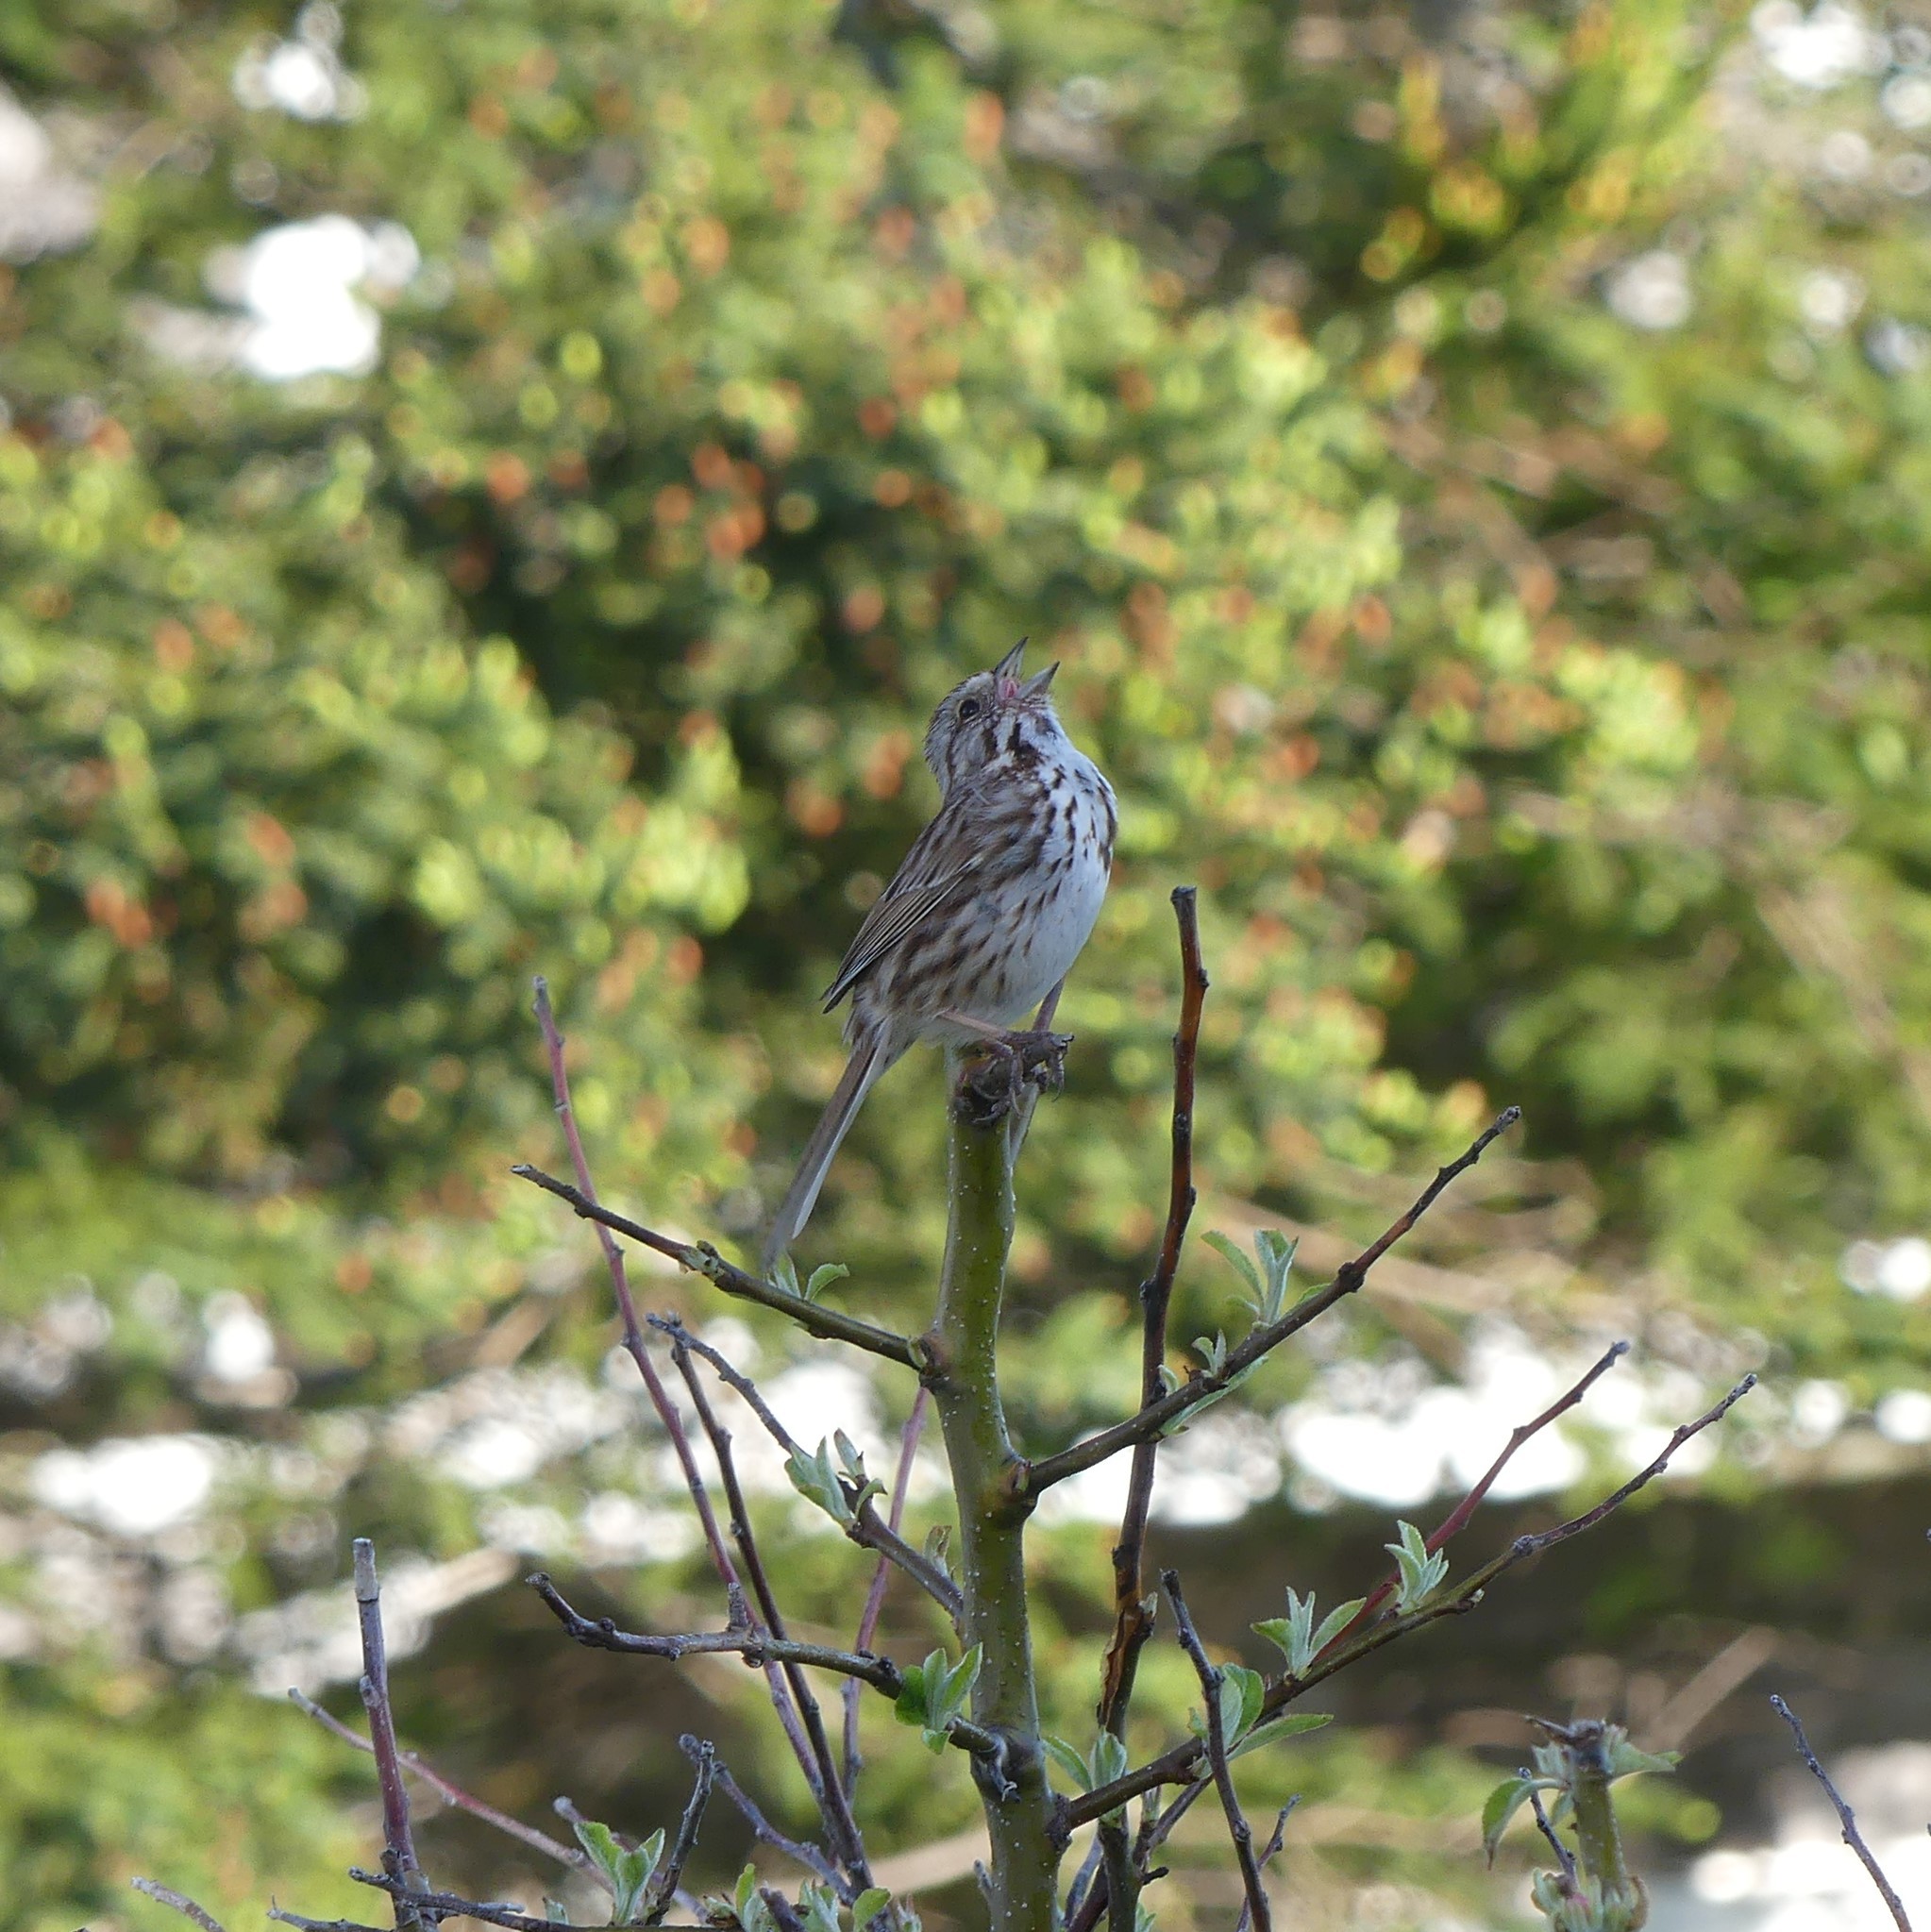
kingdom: Animalia
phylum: Chordata
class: Aves
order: Passeriformes
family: Passerellidae
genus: Melospiza
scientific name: Melospiza melodia
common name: Song sparrow
